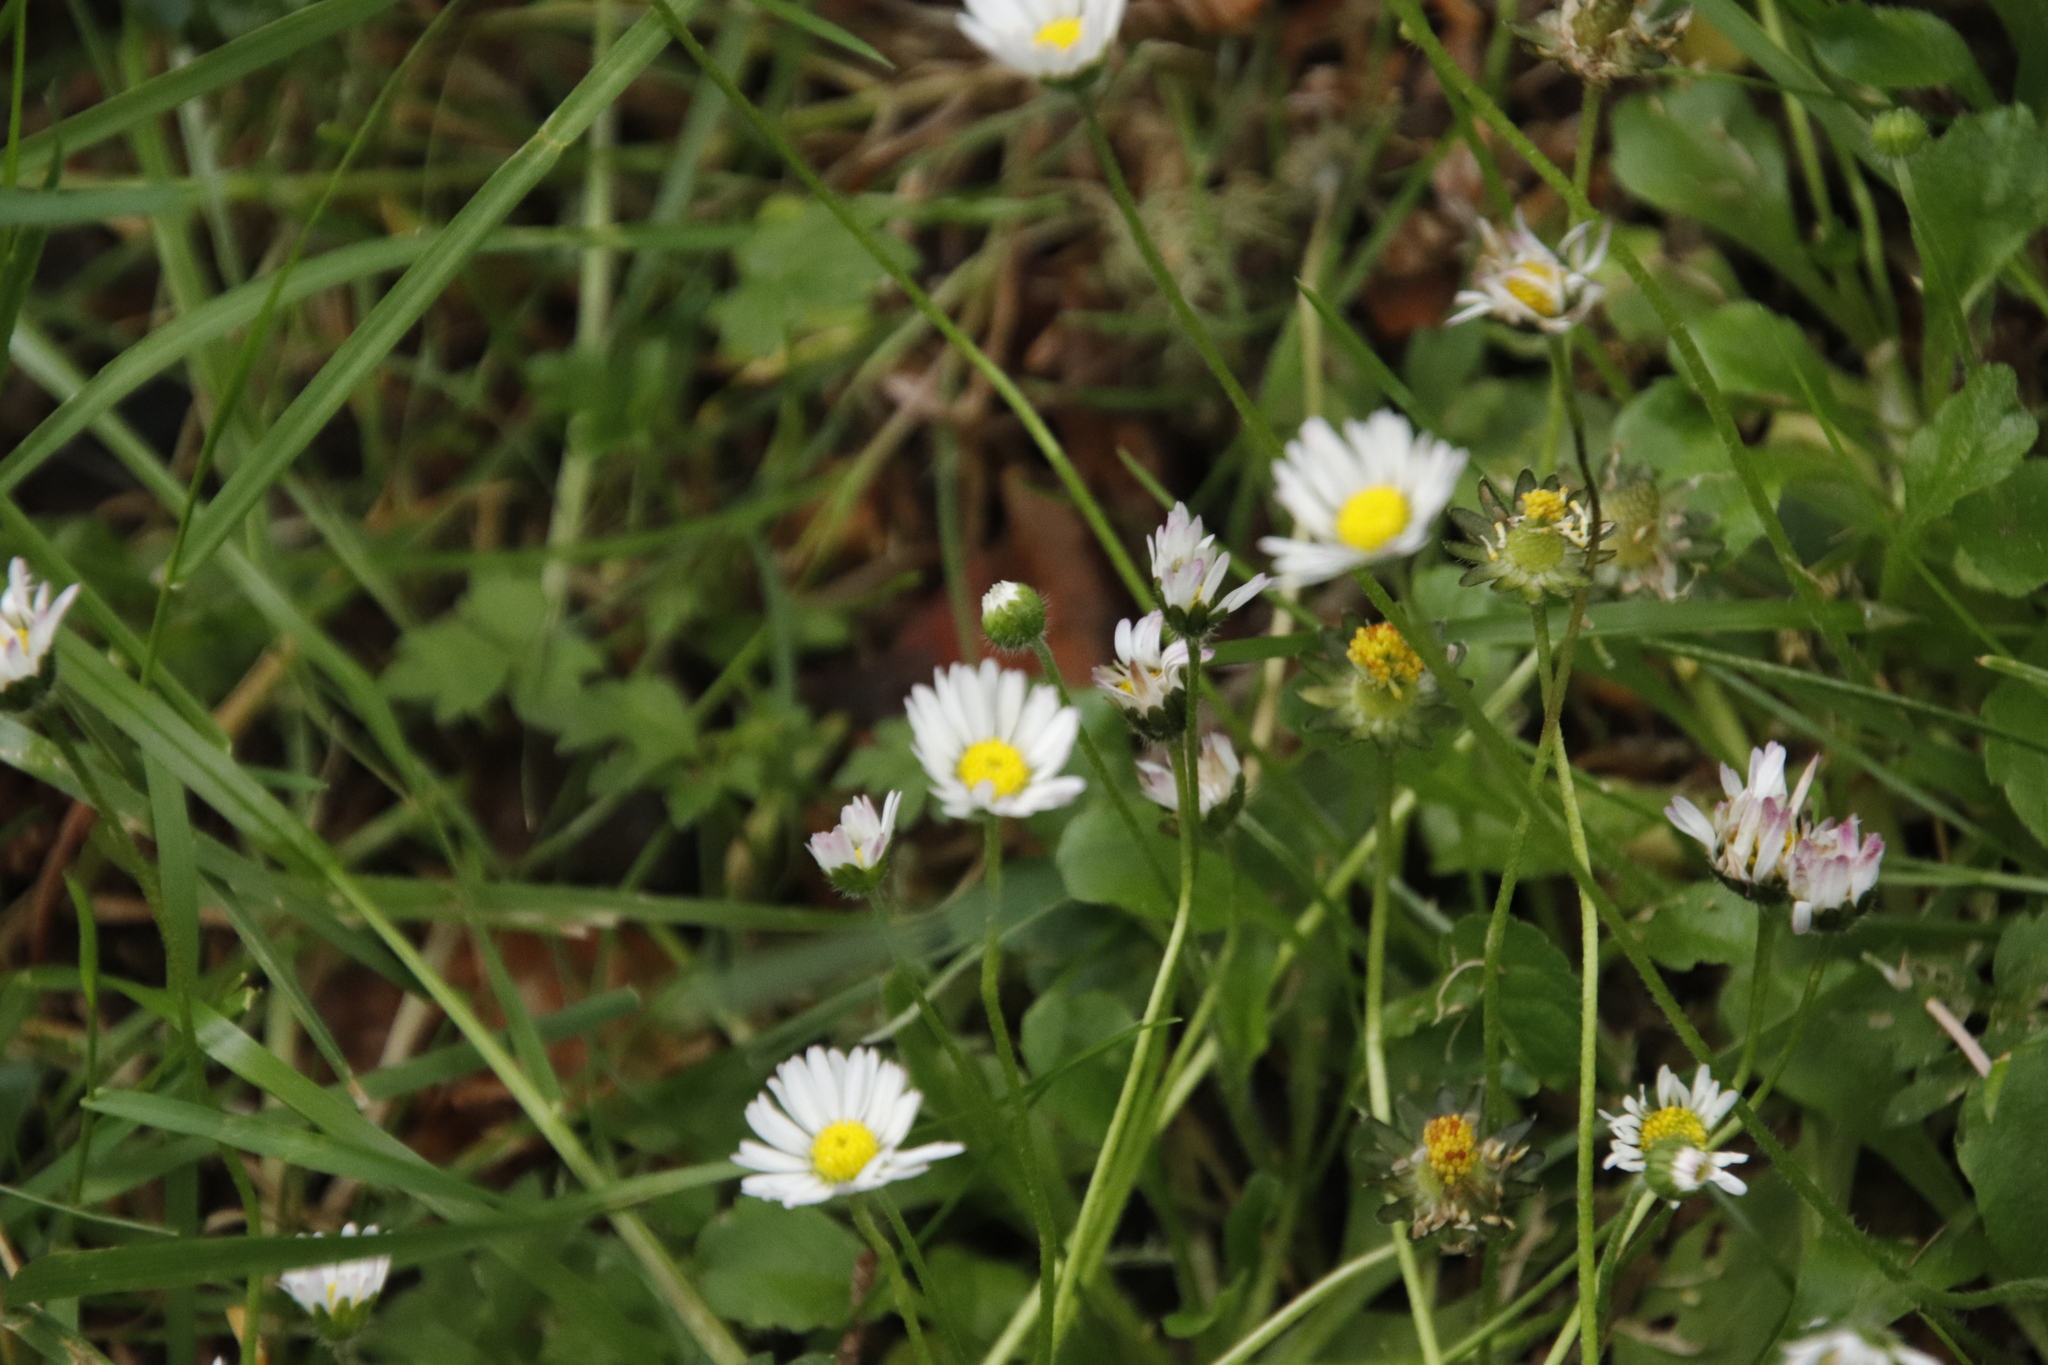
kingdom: Plantae
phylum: Tracheophyta
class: Magnoliopsida
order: Asterales
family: Asteraceae
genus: Bellis
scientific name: Bellis perennis
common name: Lawndaisy
